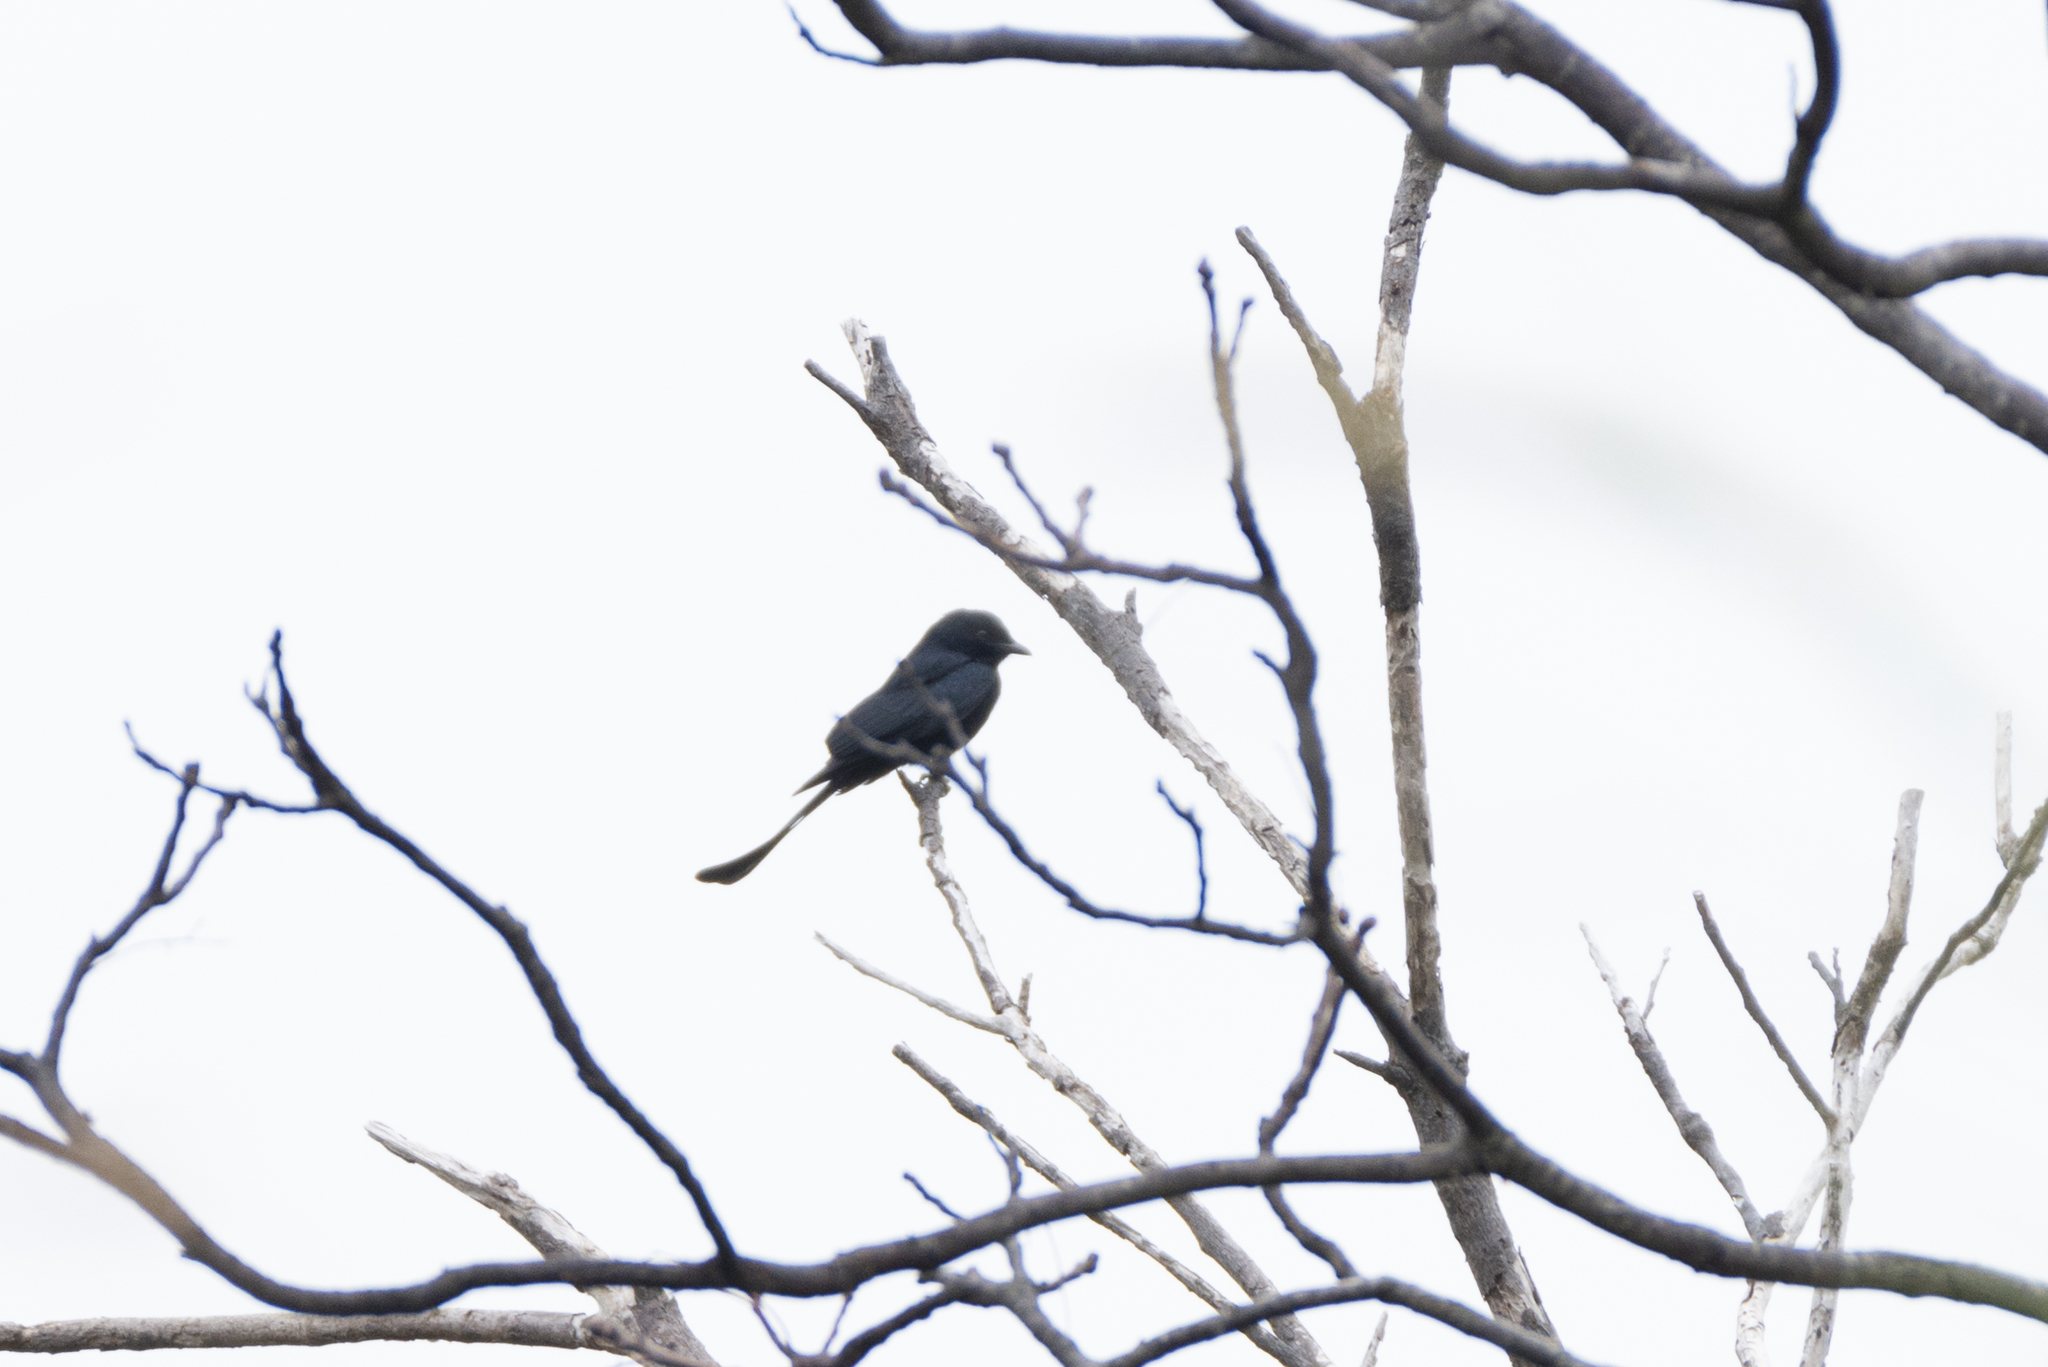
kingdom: Animalia
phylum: Chordata
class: Aves
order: Passeriformes
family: Dicruridae
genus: Dicrurus
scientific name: Dicrurus macrocercus
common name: Black drongo
